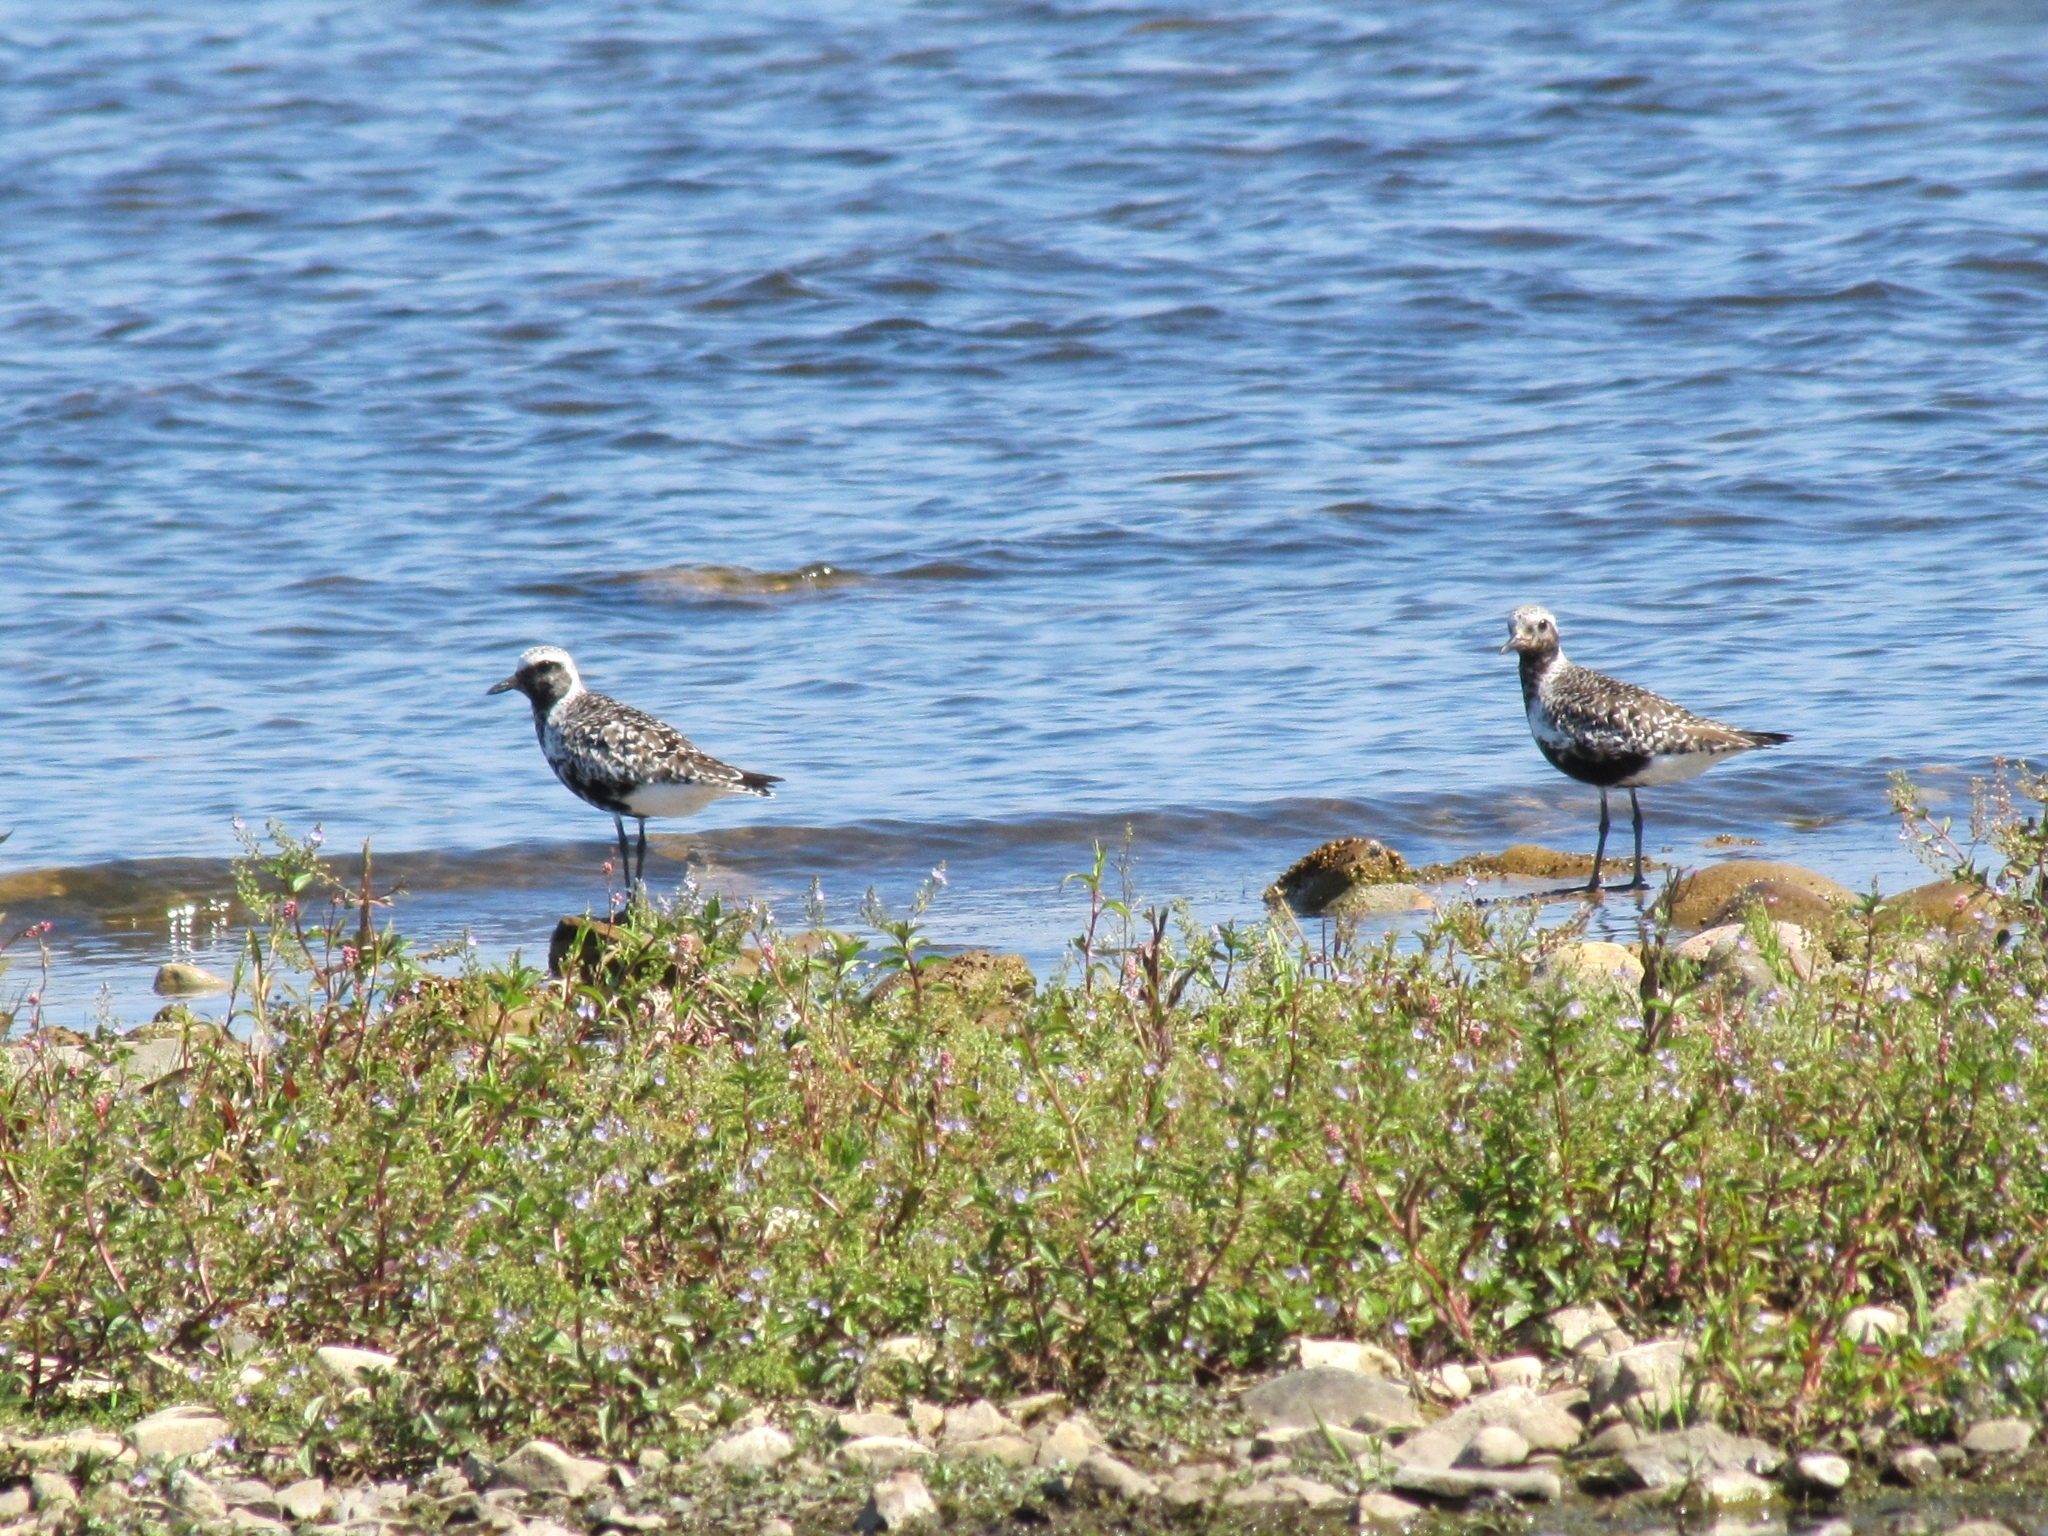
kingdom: Animalia
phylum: Chordata
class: Aves
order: Charadriiformes
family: Charadriidae
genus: Pluvialis
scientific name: Pluvialis squatarola
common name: Grey plover
